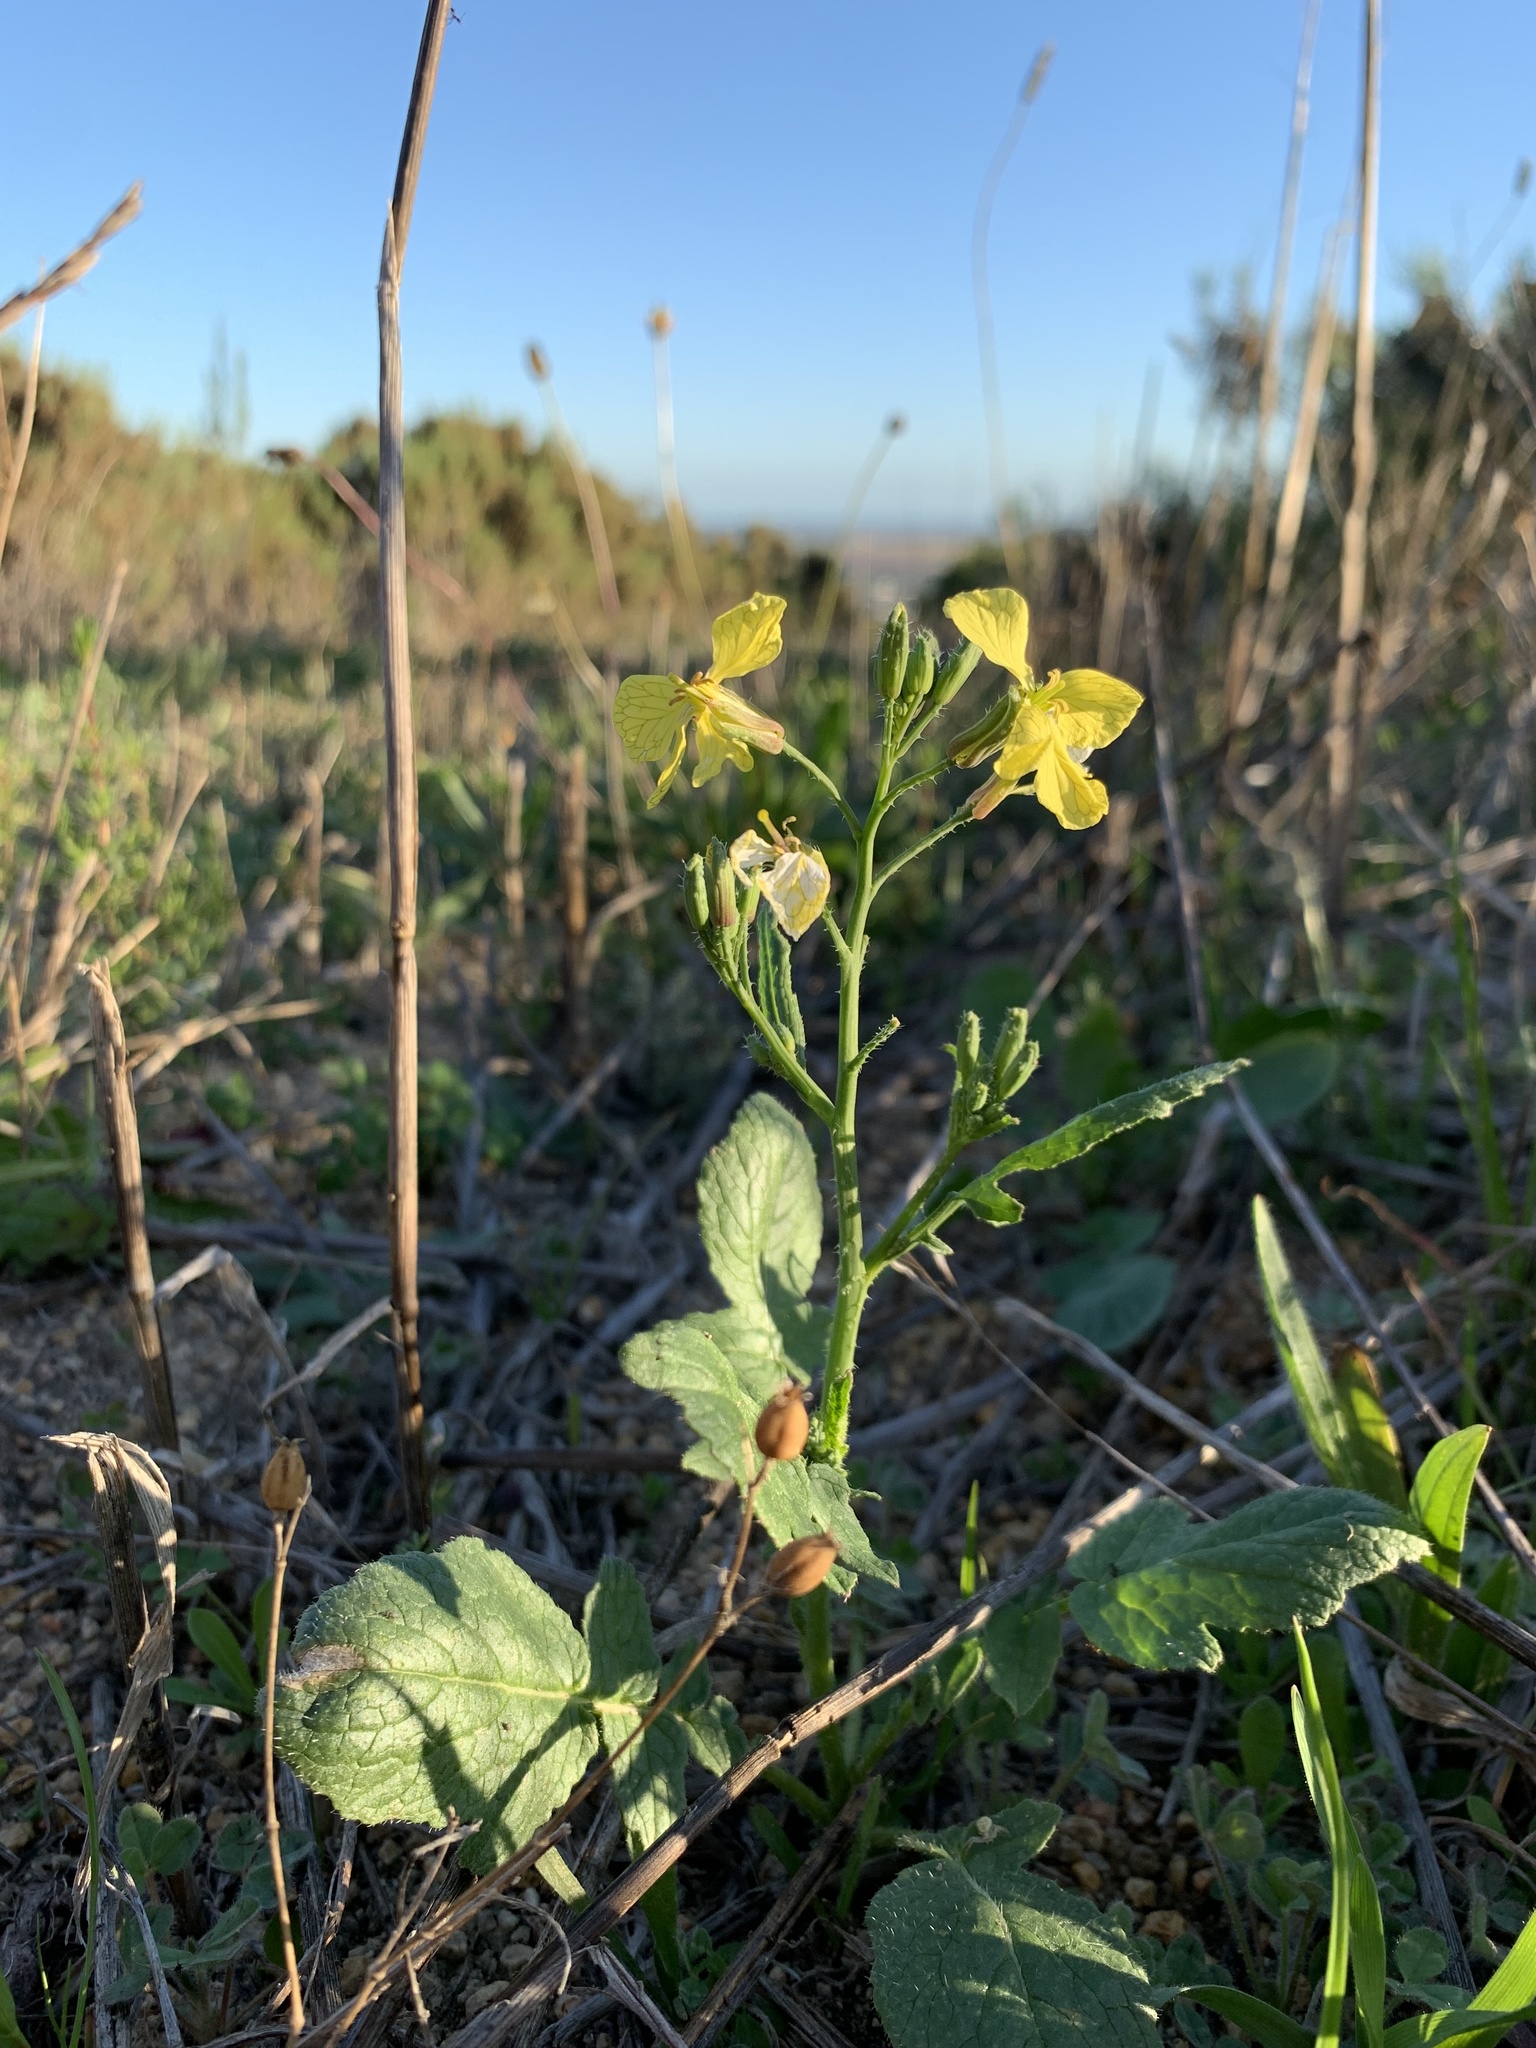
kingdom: Plantae
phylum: Tracheophyta
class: Magnoliopsida
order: Brassicales
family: Brassicaceae
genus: Raphanus
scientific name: Raphanus raphanistrum
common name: Wild radish
